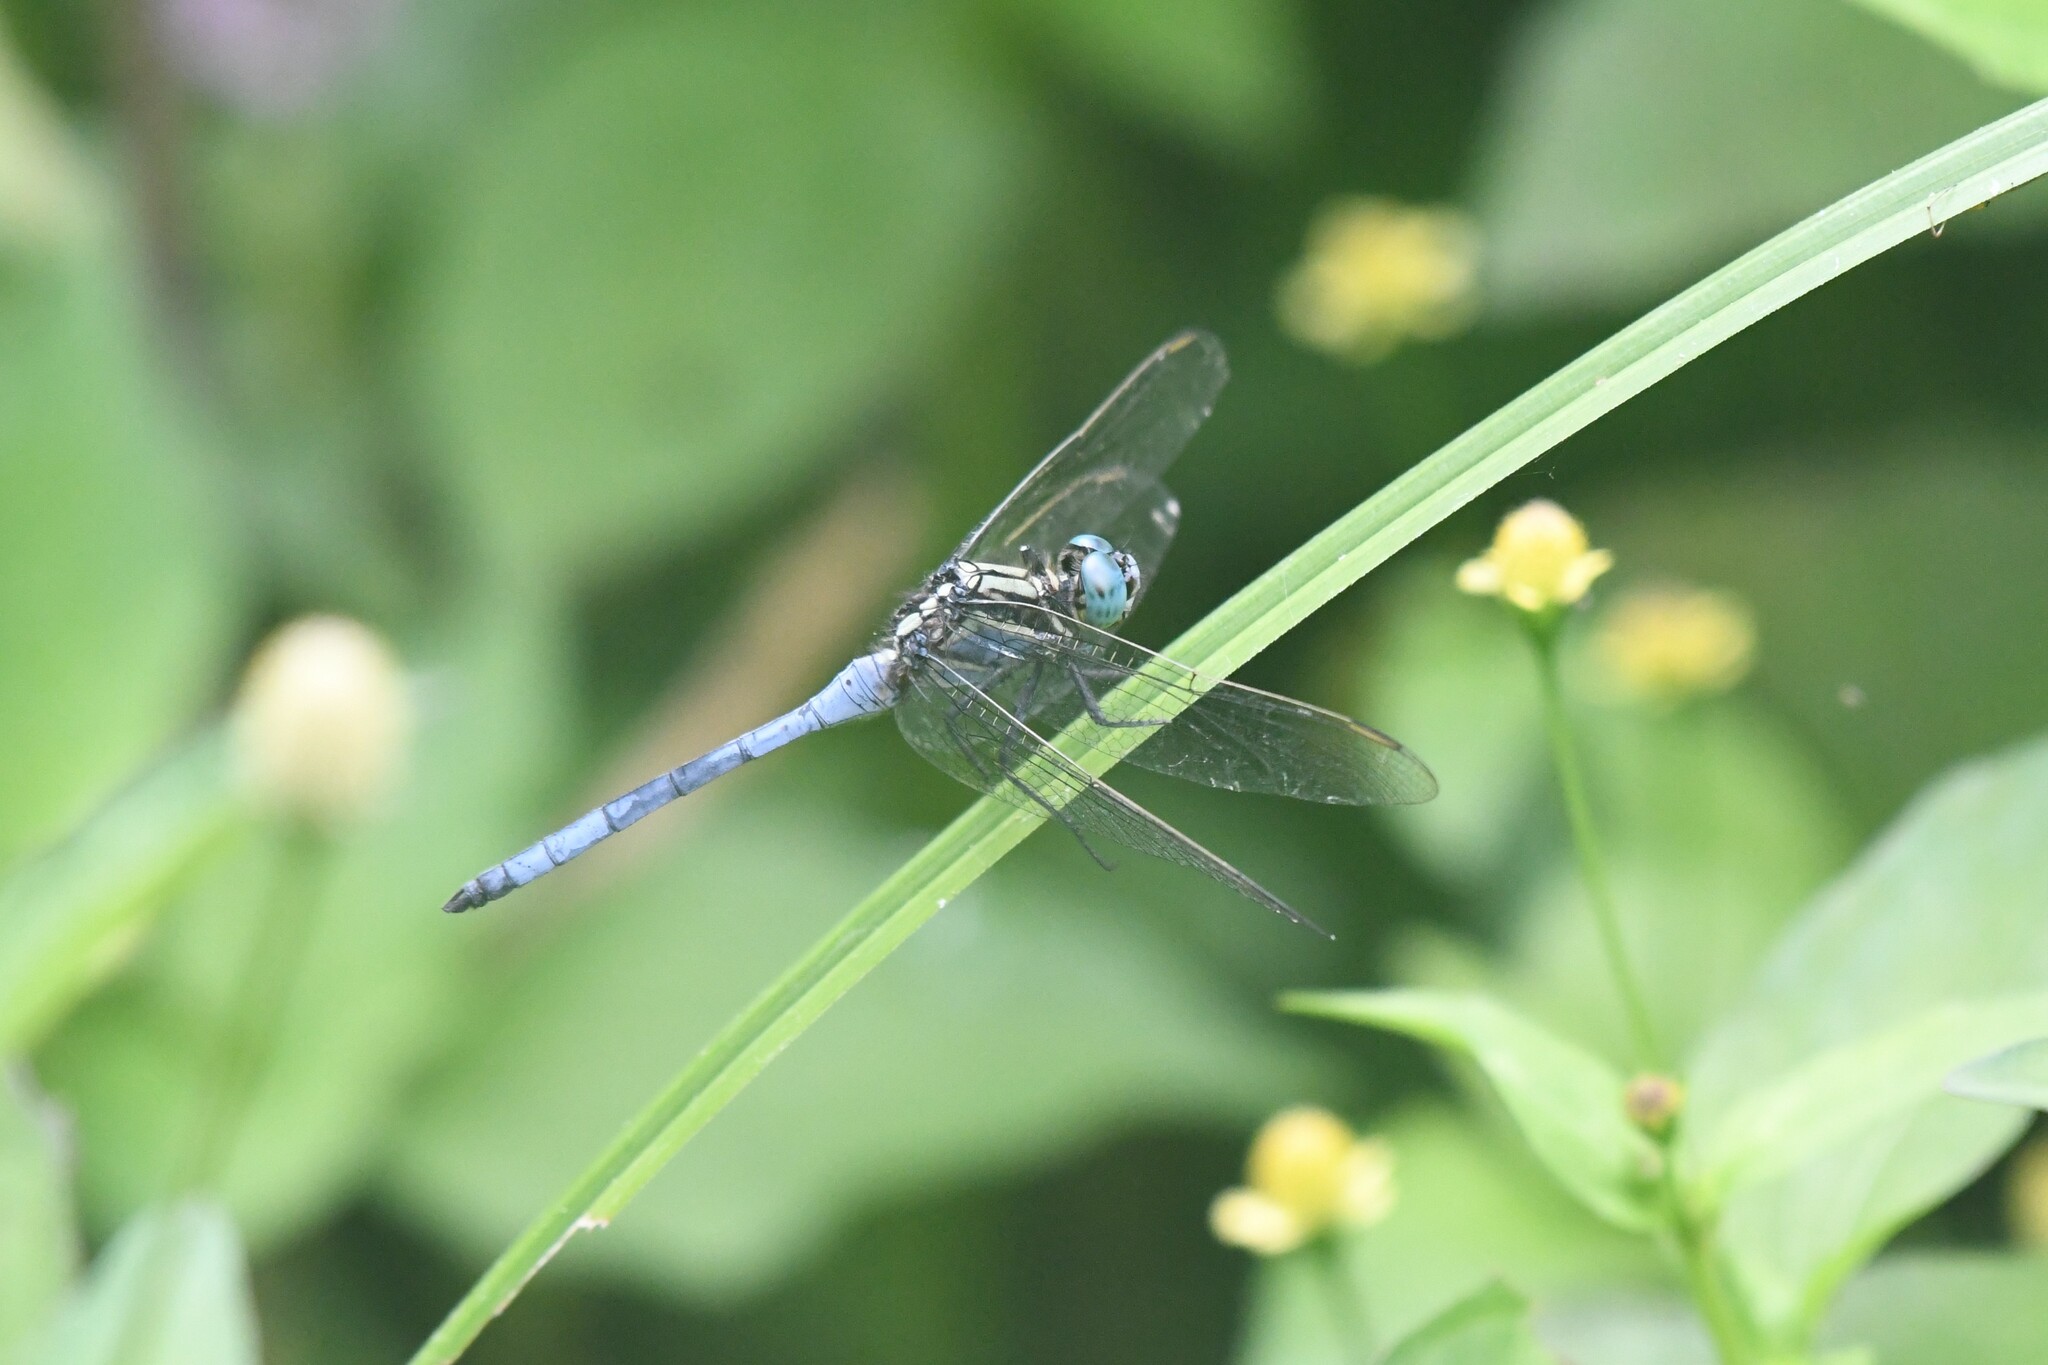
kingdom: Animalia
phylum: Arthropoda
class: Insecta
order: Odonata
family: Libellulidae
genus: Orthetrum
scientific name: Orthetrum luzonicum
